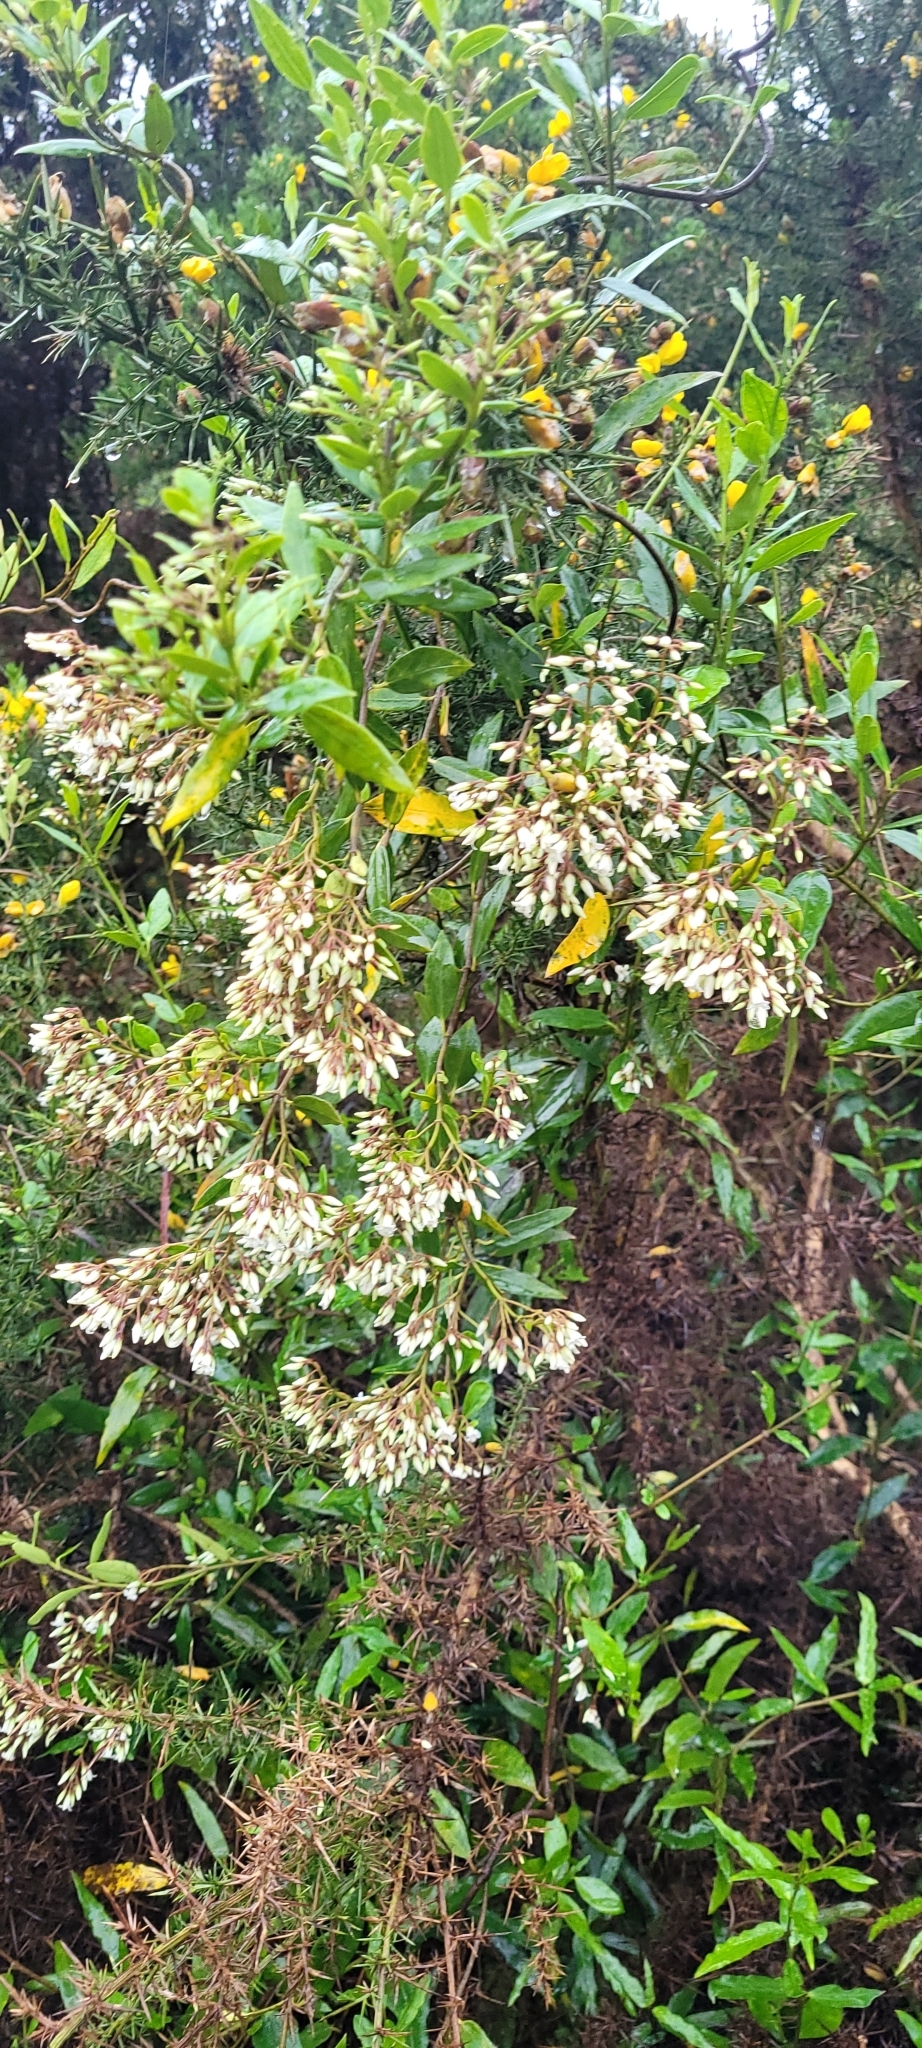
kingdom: Plantae
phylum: Tracheophyta
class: Magnoliopsida
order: Gentianales
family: Apocynaceae
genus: Parsonsia
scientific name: Parsonsia heterophylla
